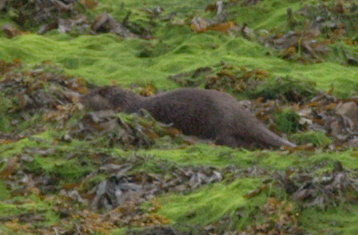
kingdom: Animalia
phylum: Chordata
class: Mammalia
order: Carnivora
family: Mustelidae
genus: Lutra
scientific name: Lutra lutra
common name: European otter
